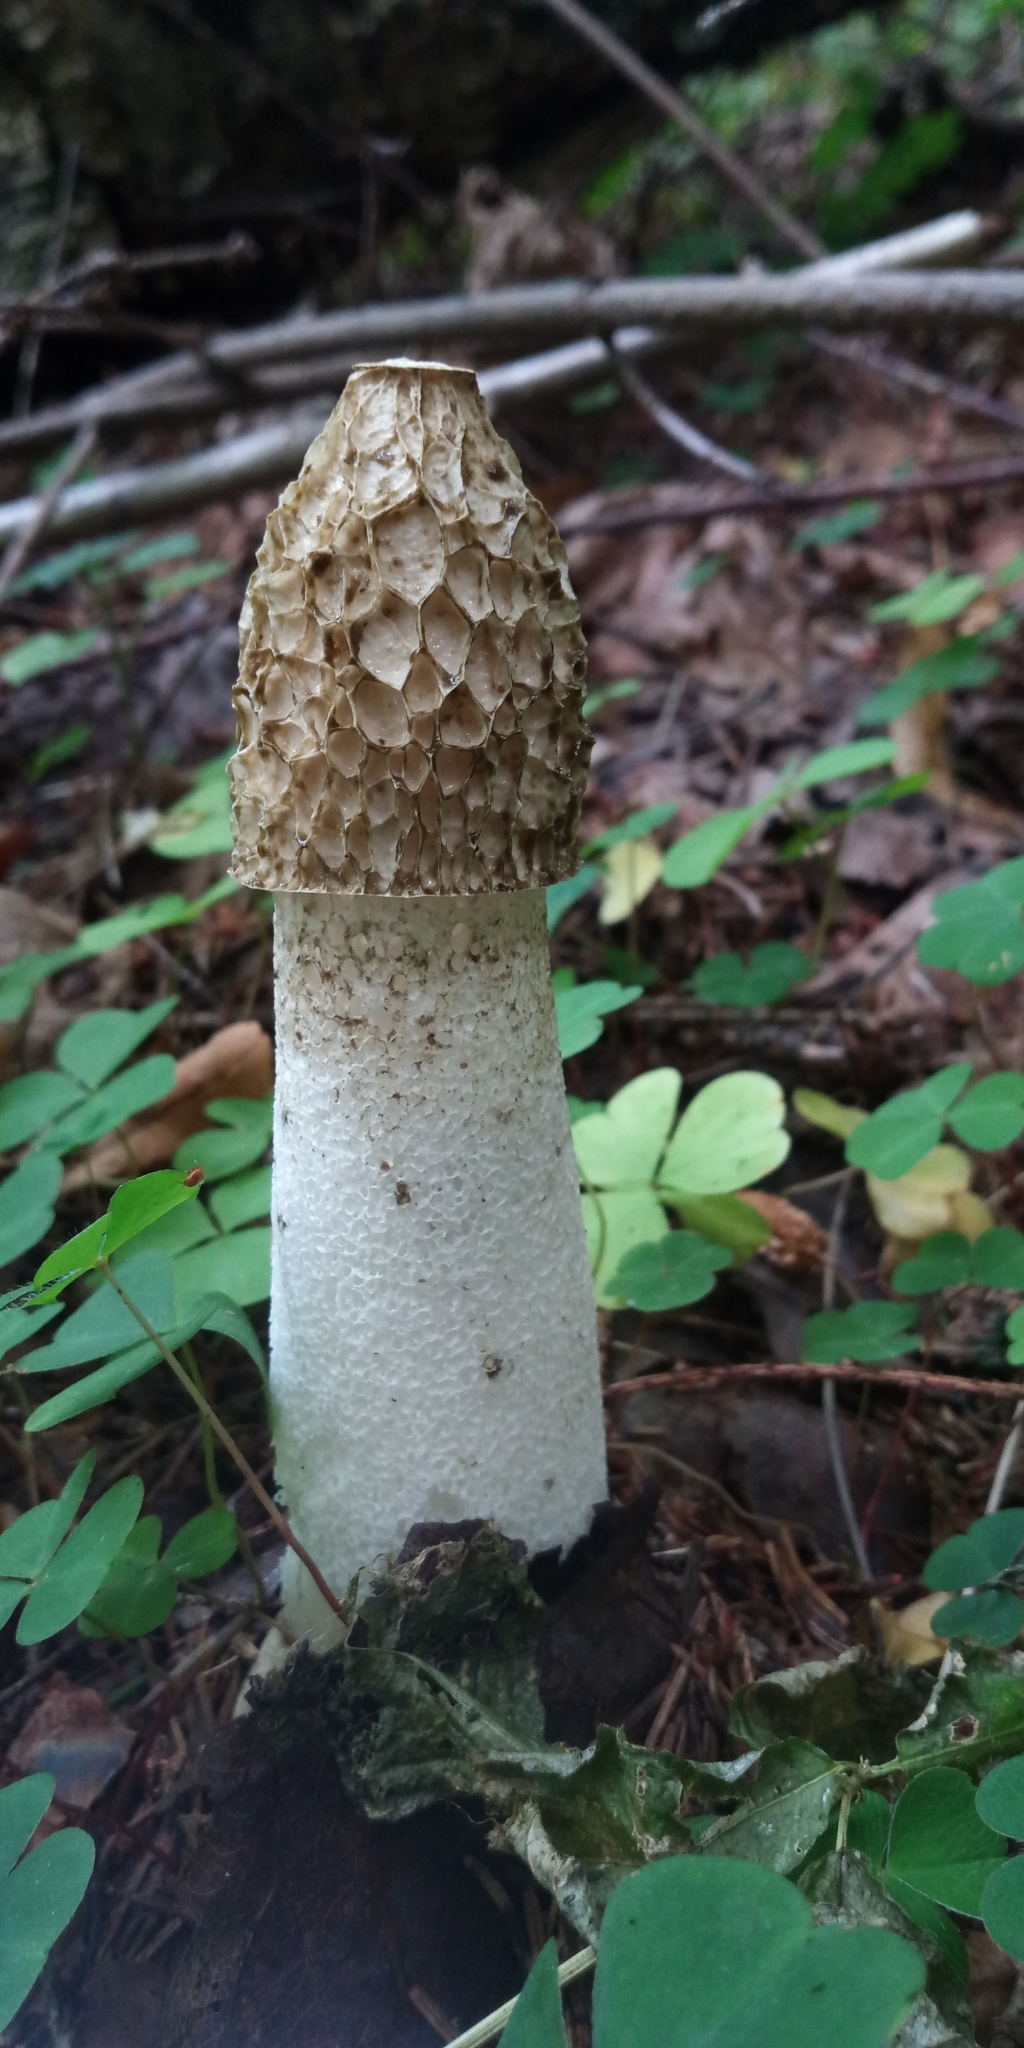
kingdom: Fungi
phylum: Basidiomycota
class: Agaricomycetes
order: Phallales
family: Phallaceae
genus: Phallus
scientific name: Phallus impudicus
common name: Common stinkhorn
